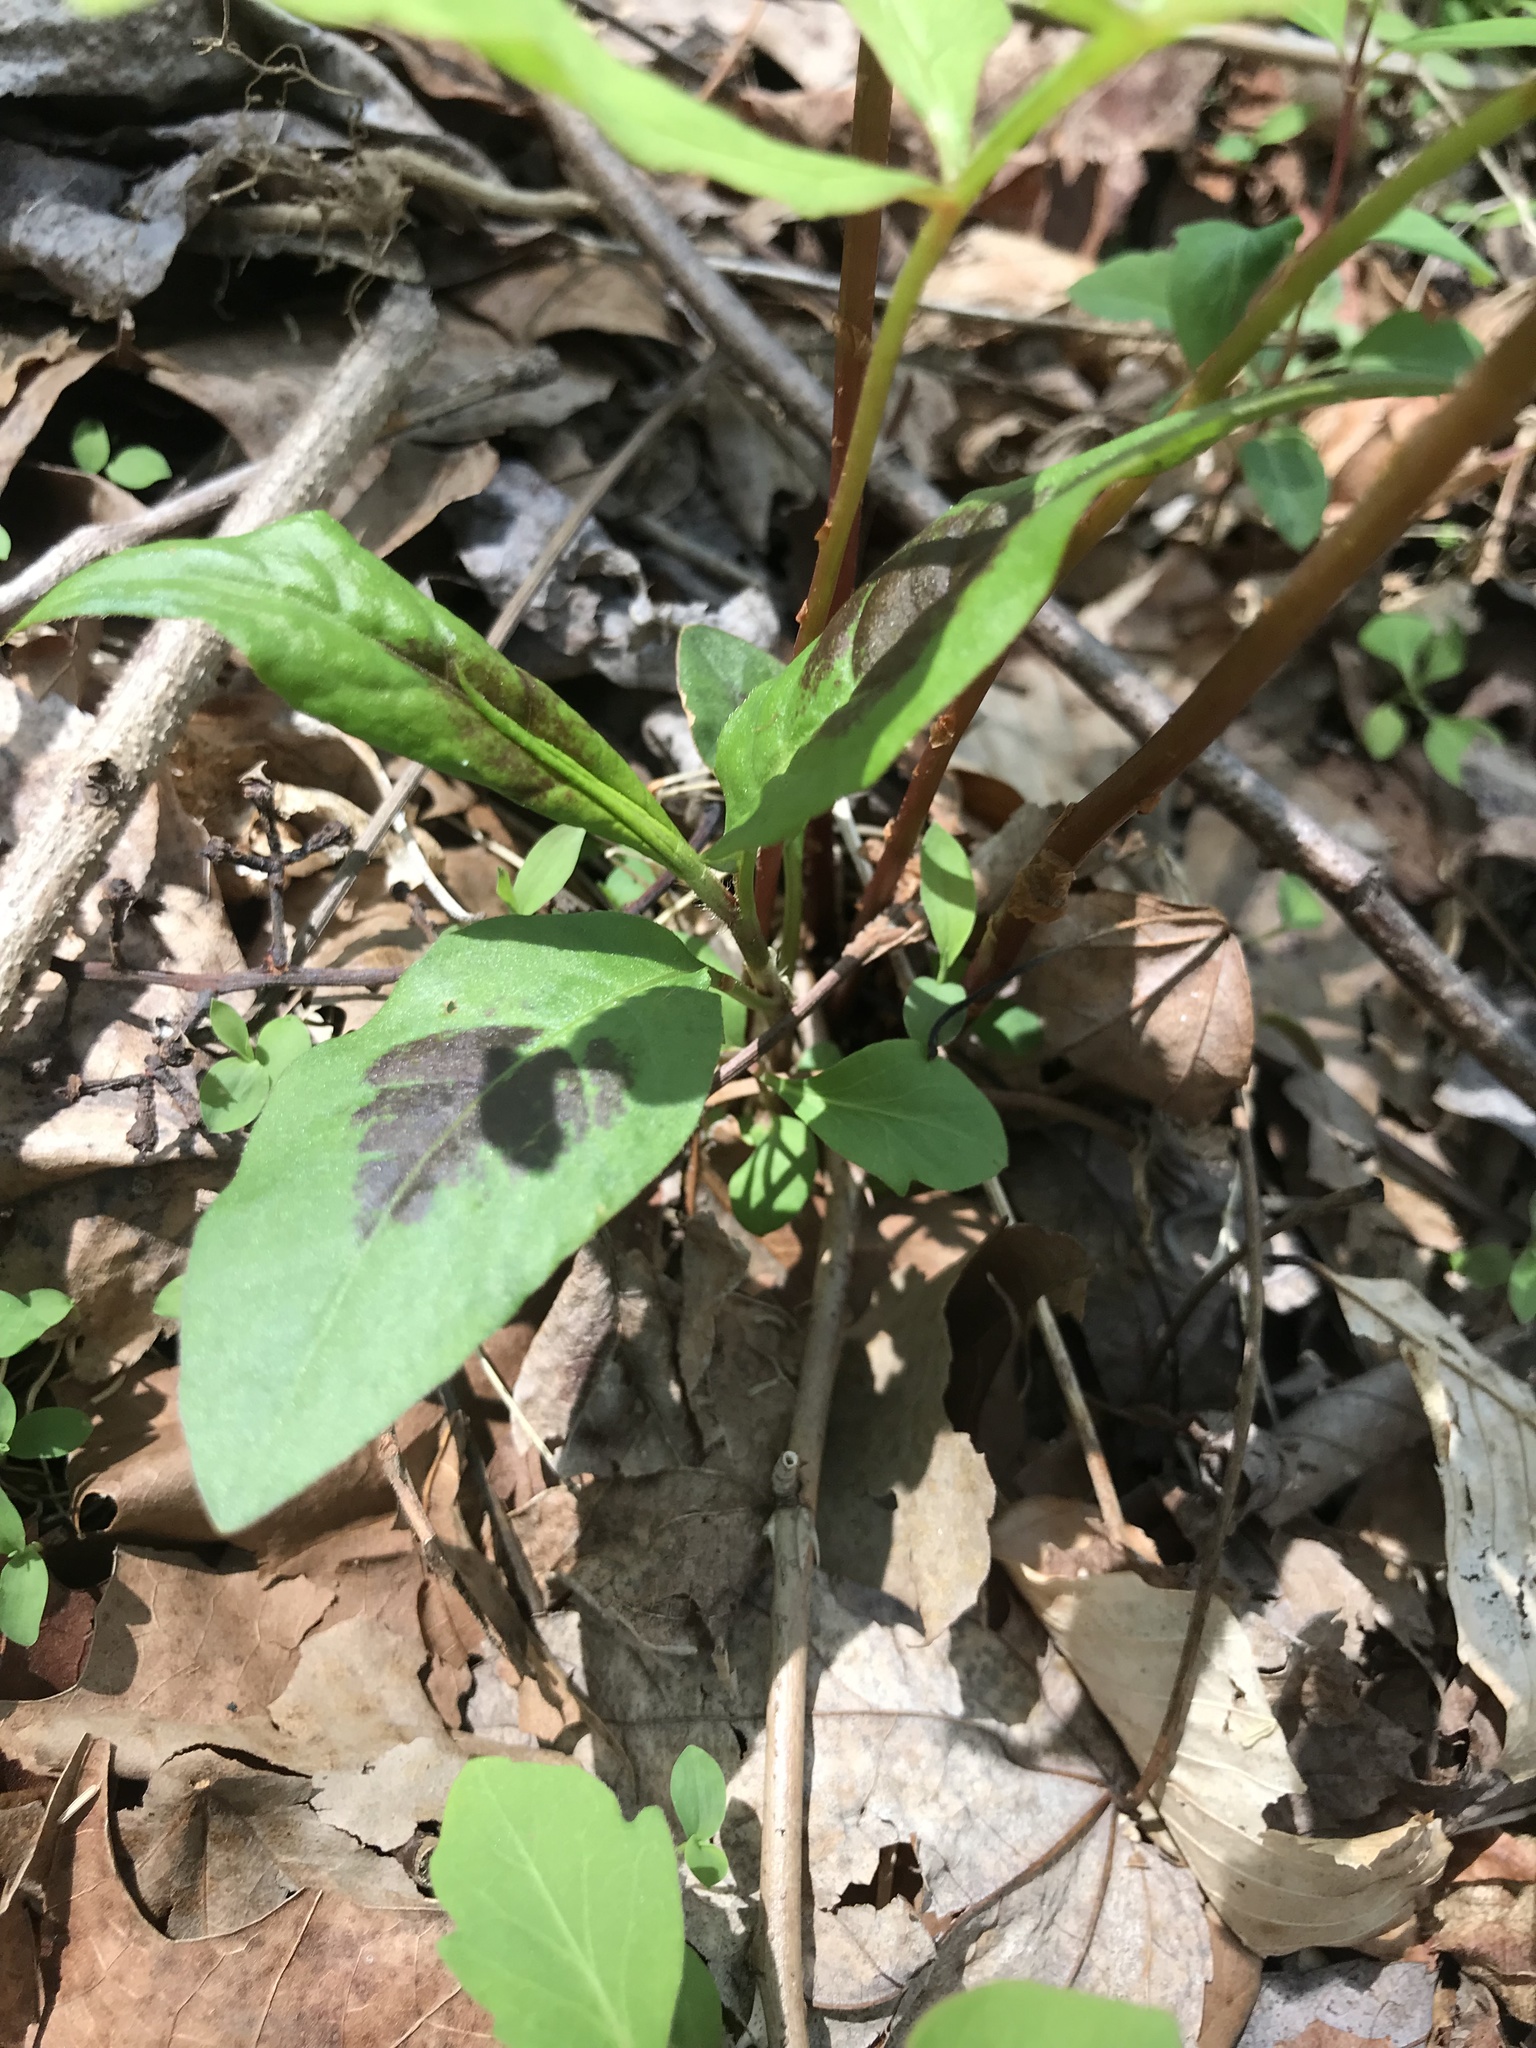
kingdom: Plantae
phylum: Tracheophyta
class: Magnoliopsida
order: Caryophyllales
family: Polygonaceae
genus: Persicaria
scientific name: Persicaria virginiana
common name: Jumpseed
